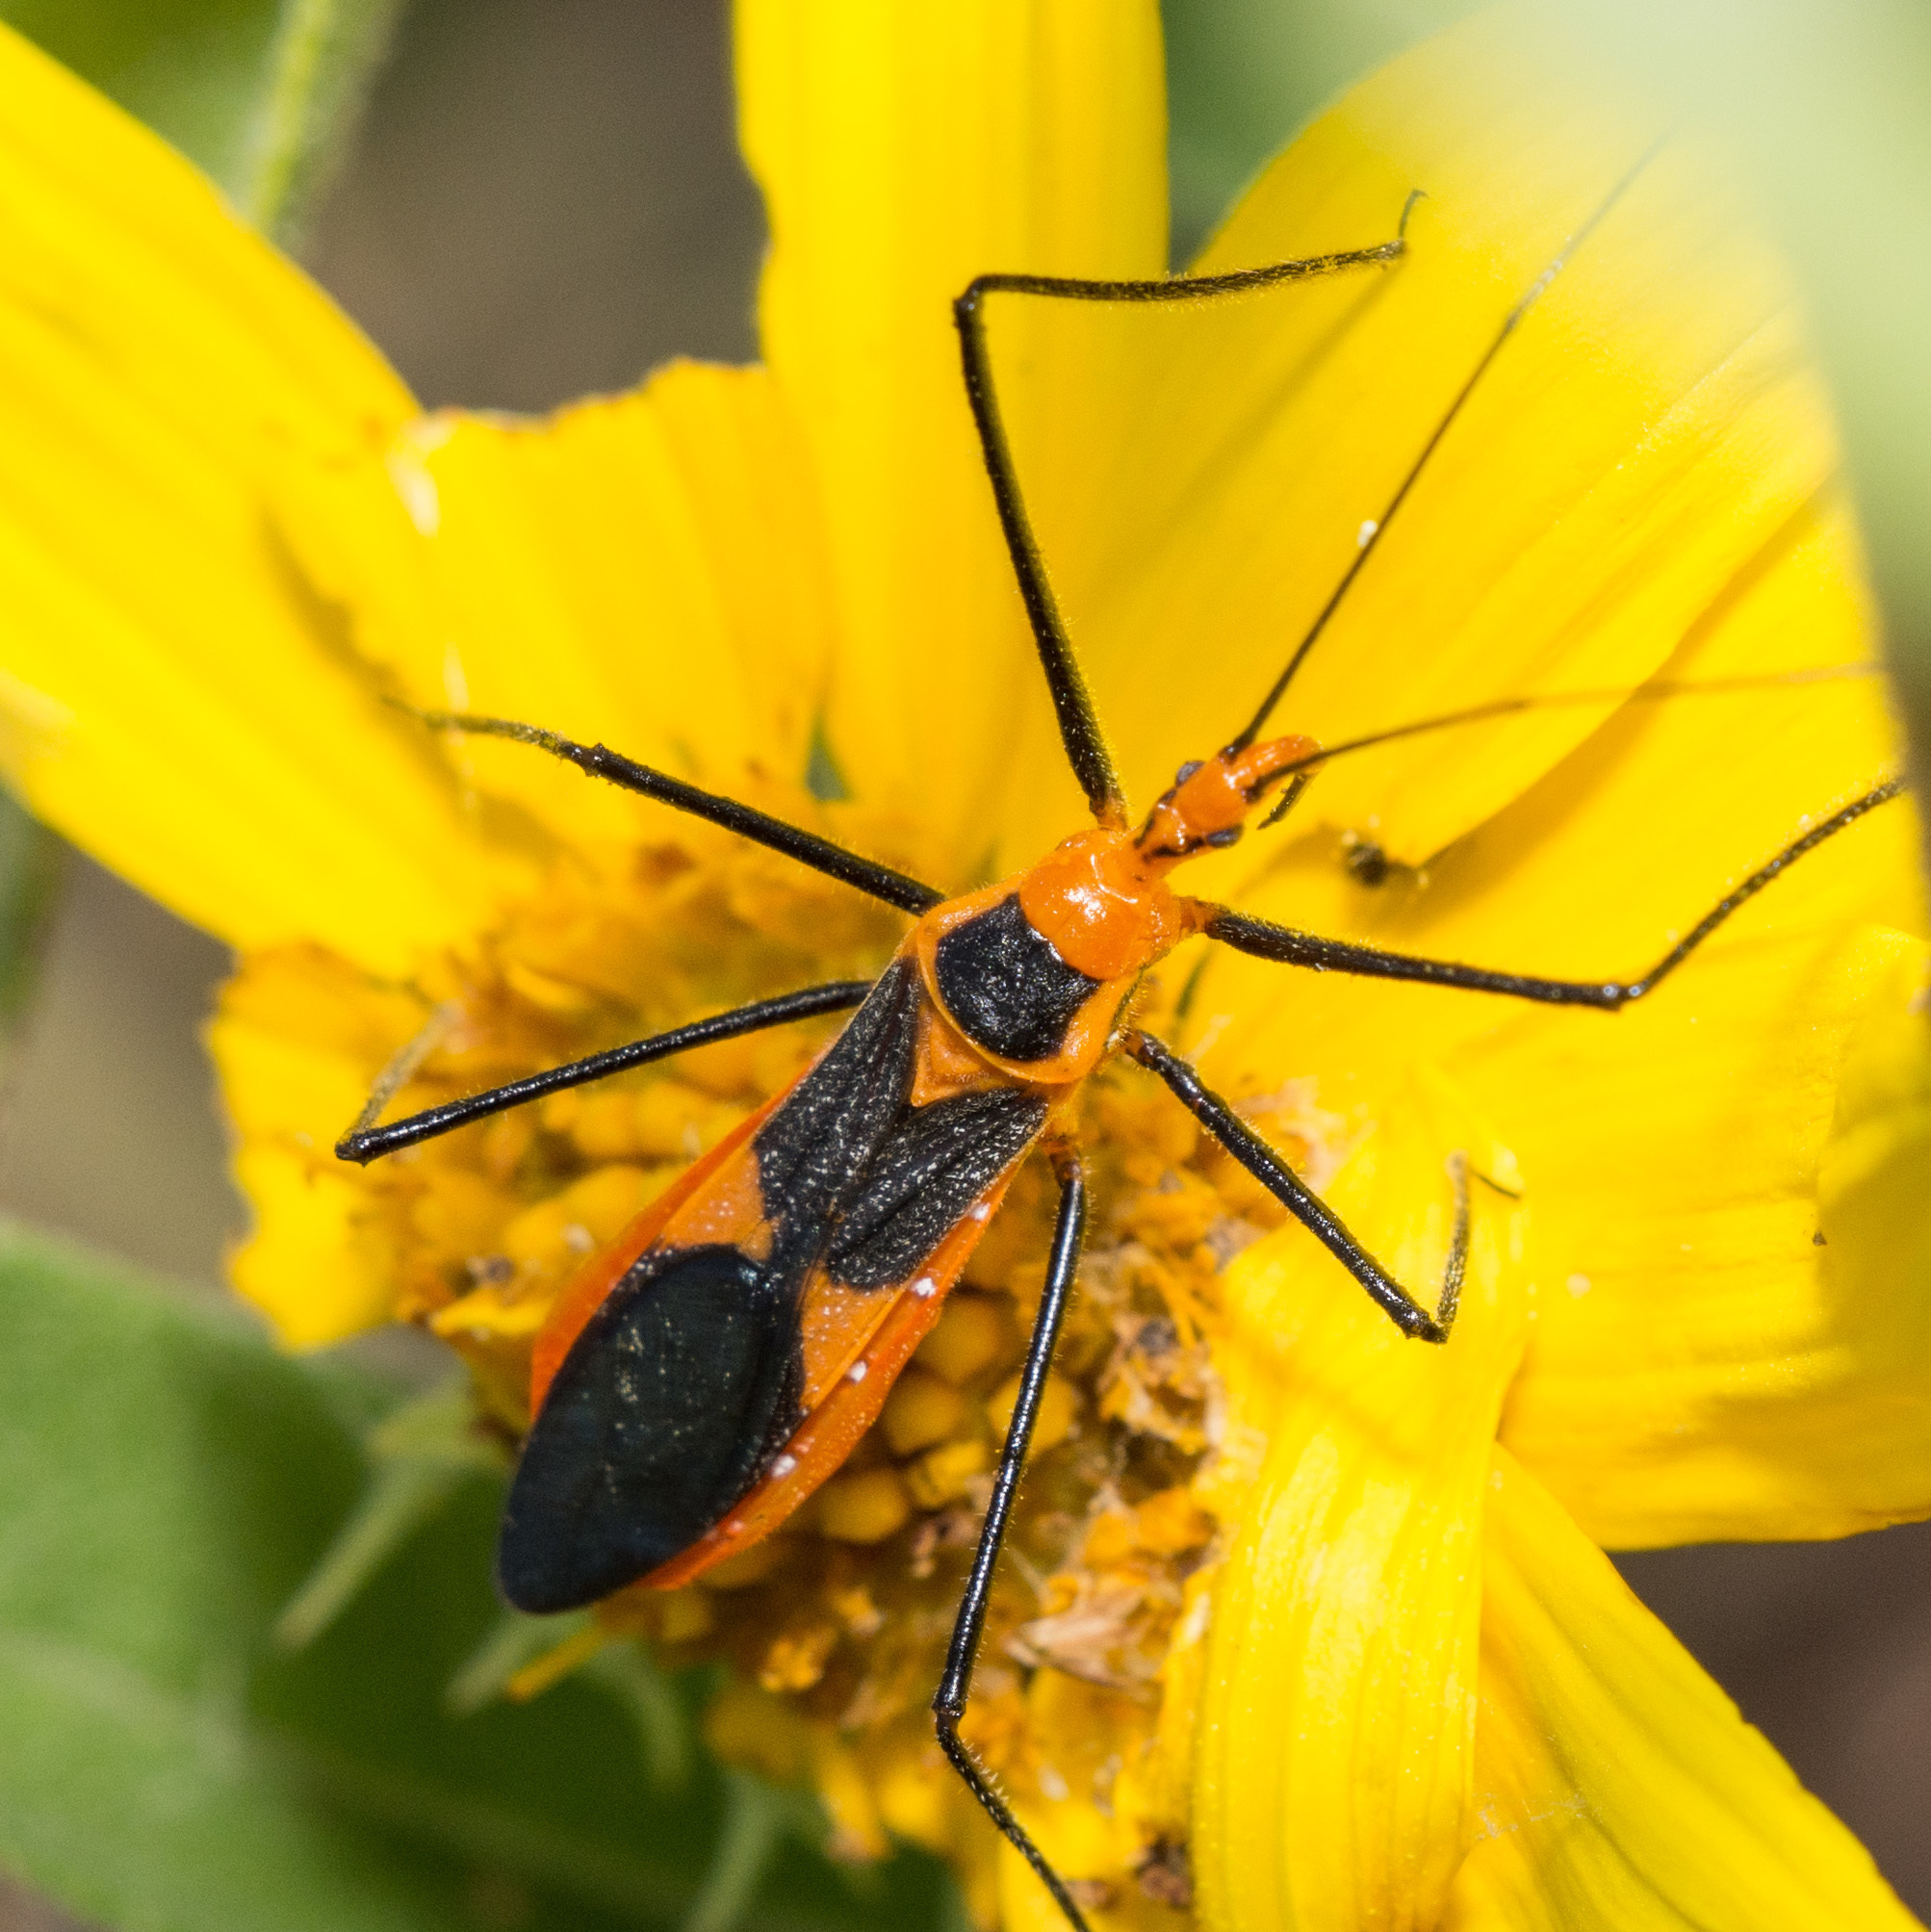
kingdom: Animalia
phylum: Arthropoda
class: Insecta
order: Hemiptera
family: Reduviidae
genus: Zelus
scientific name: Zelus longipes
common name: Milkweed assassin bug
